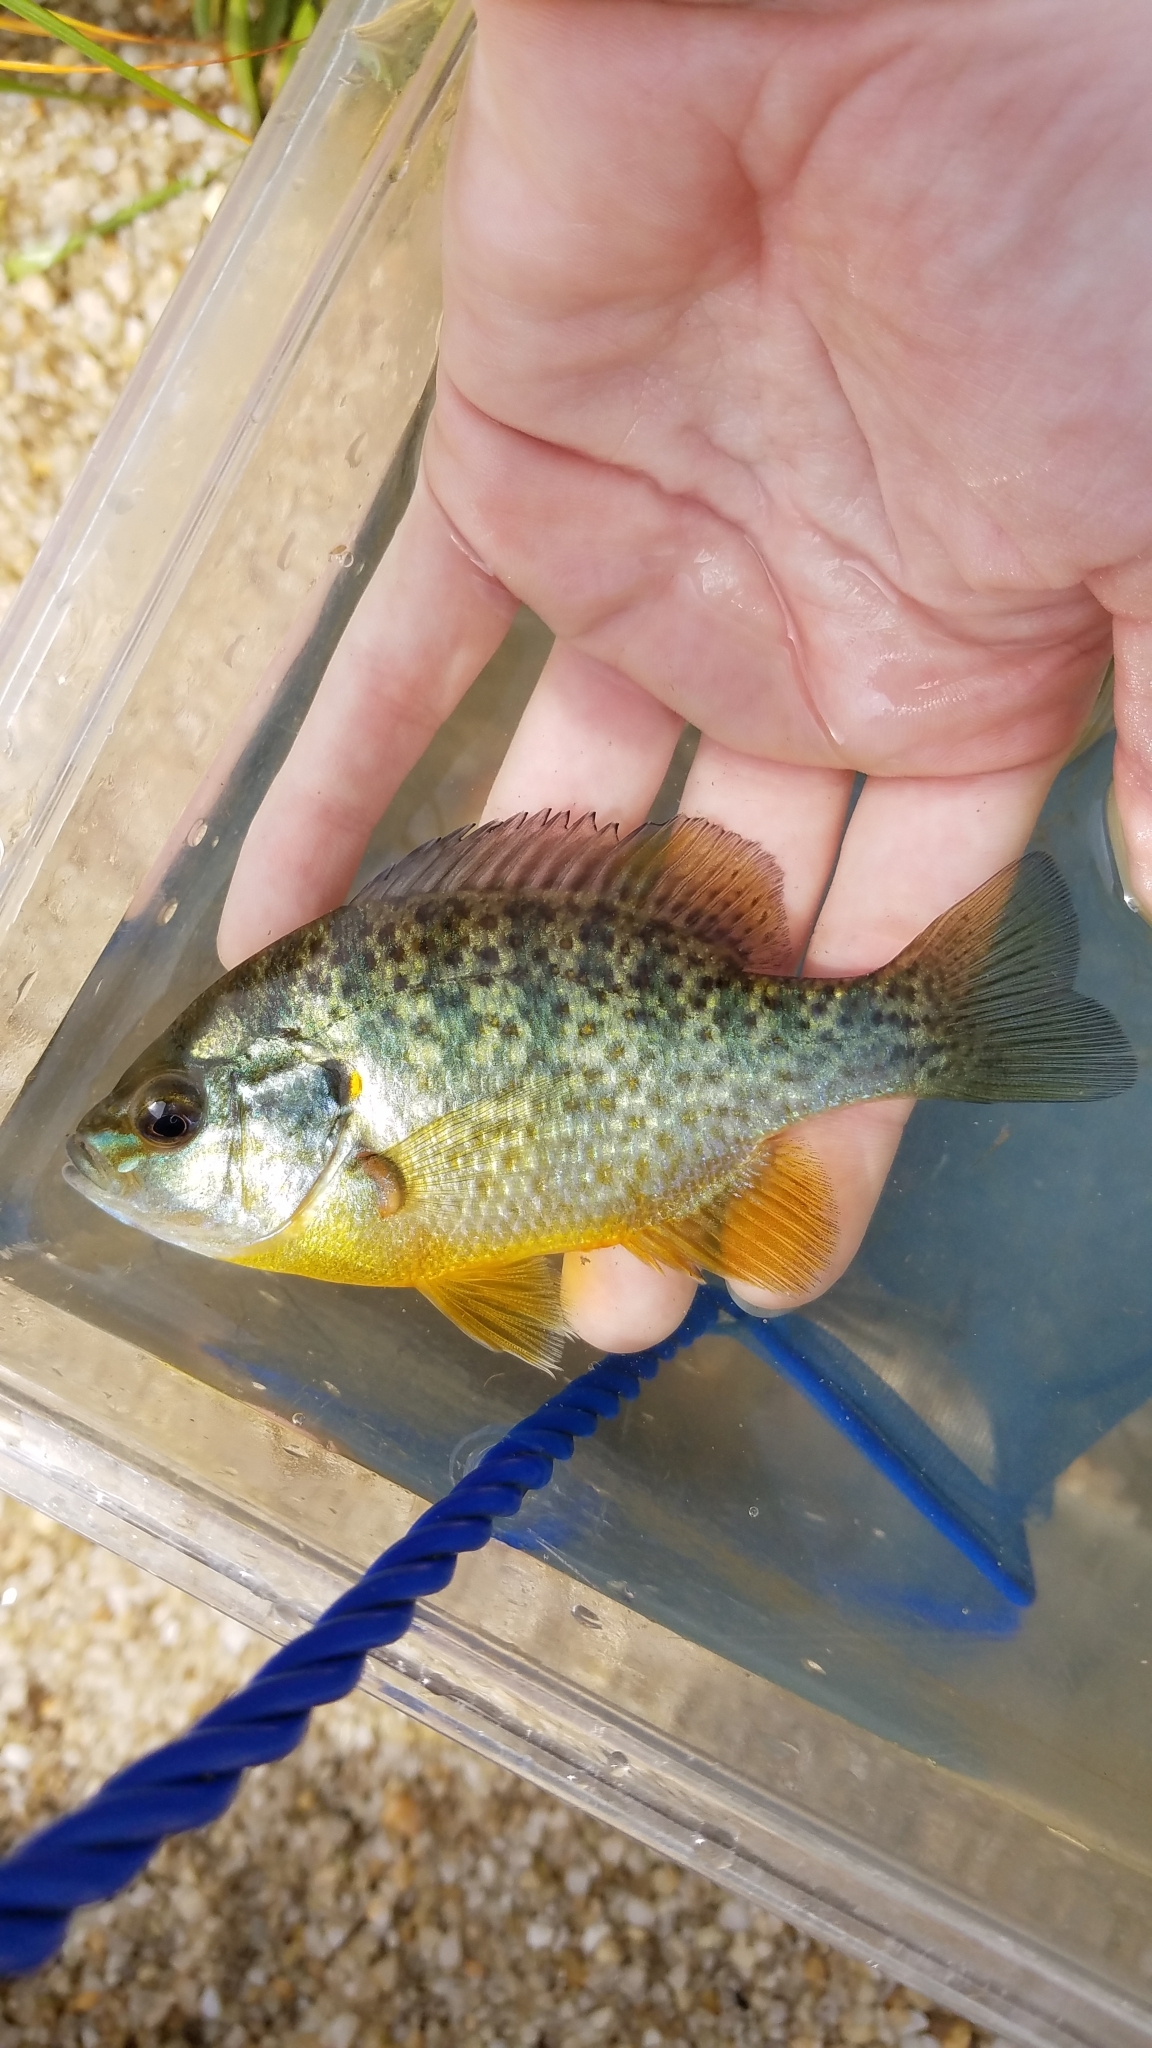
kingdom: Animalia
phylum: Chordata
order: Perciformes
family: Centrarchidae
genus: Lepomis
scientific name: Lepomis gibbosus
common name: Pumpkinseed
